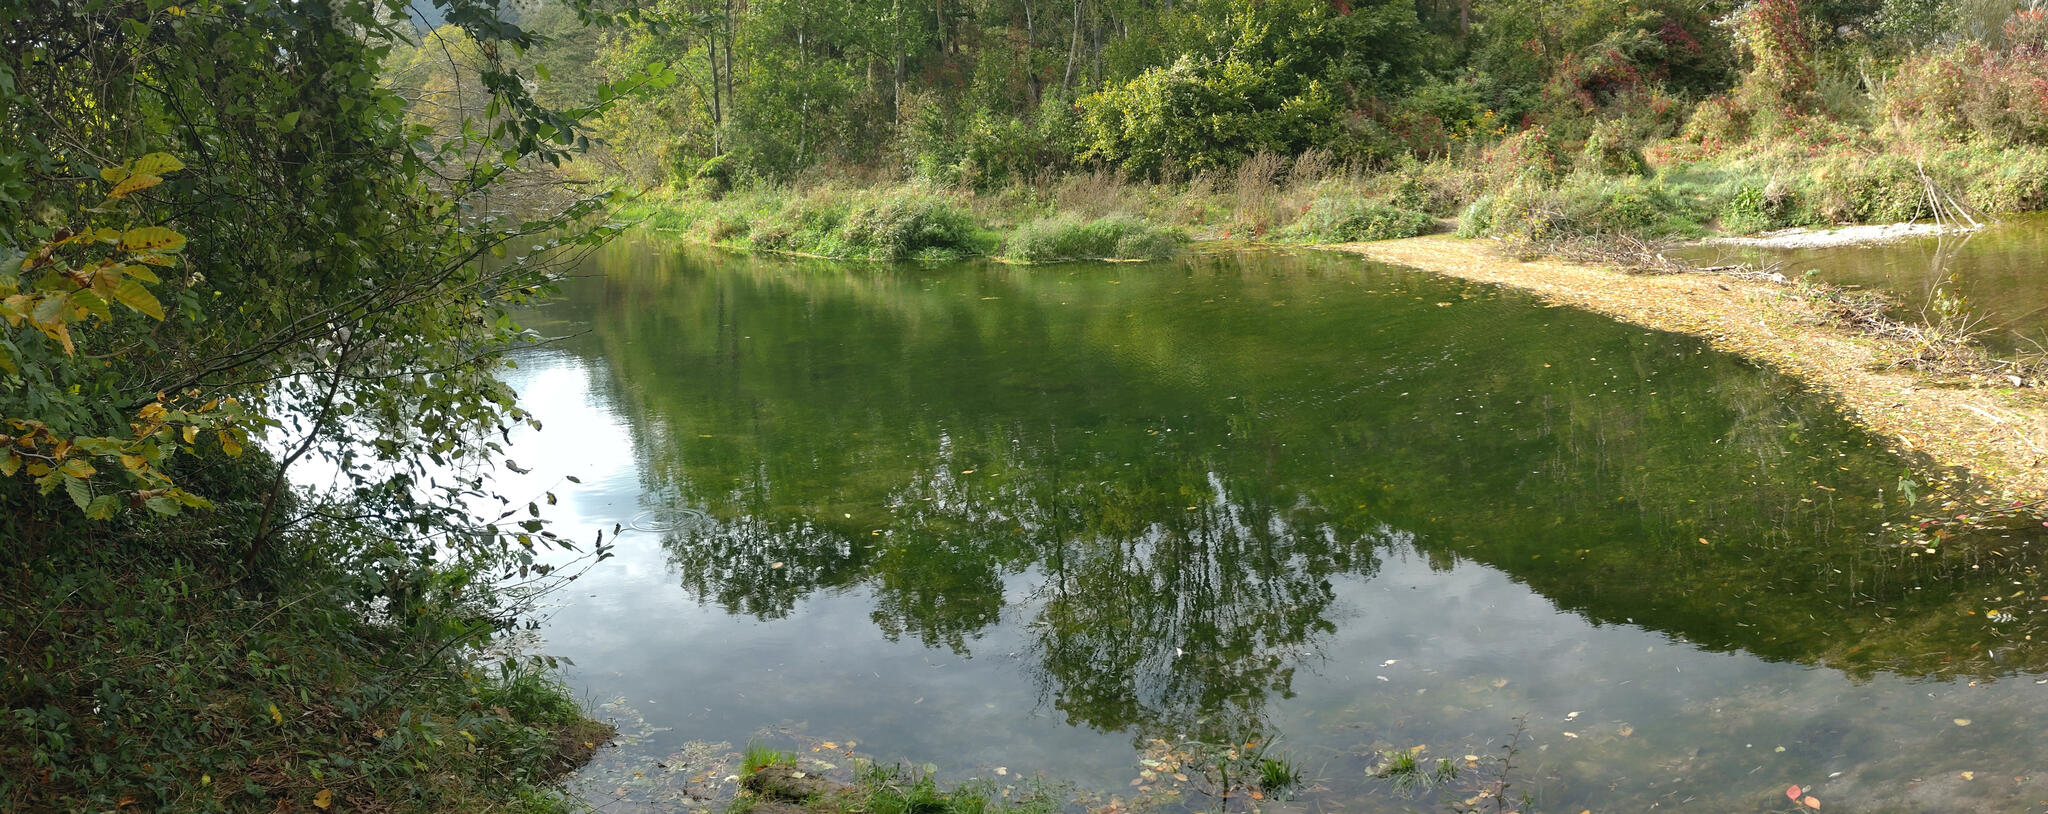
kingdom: Animalia
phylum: Chordata
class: Mammalia
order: Rodentia
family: Castoridae
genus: Castor
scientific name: Castor fiber
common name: Eurasian beaver
